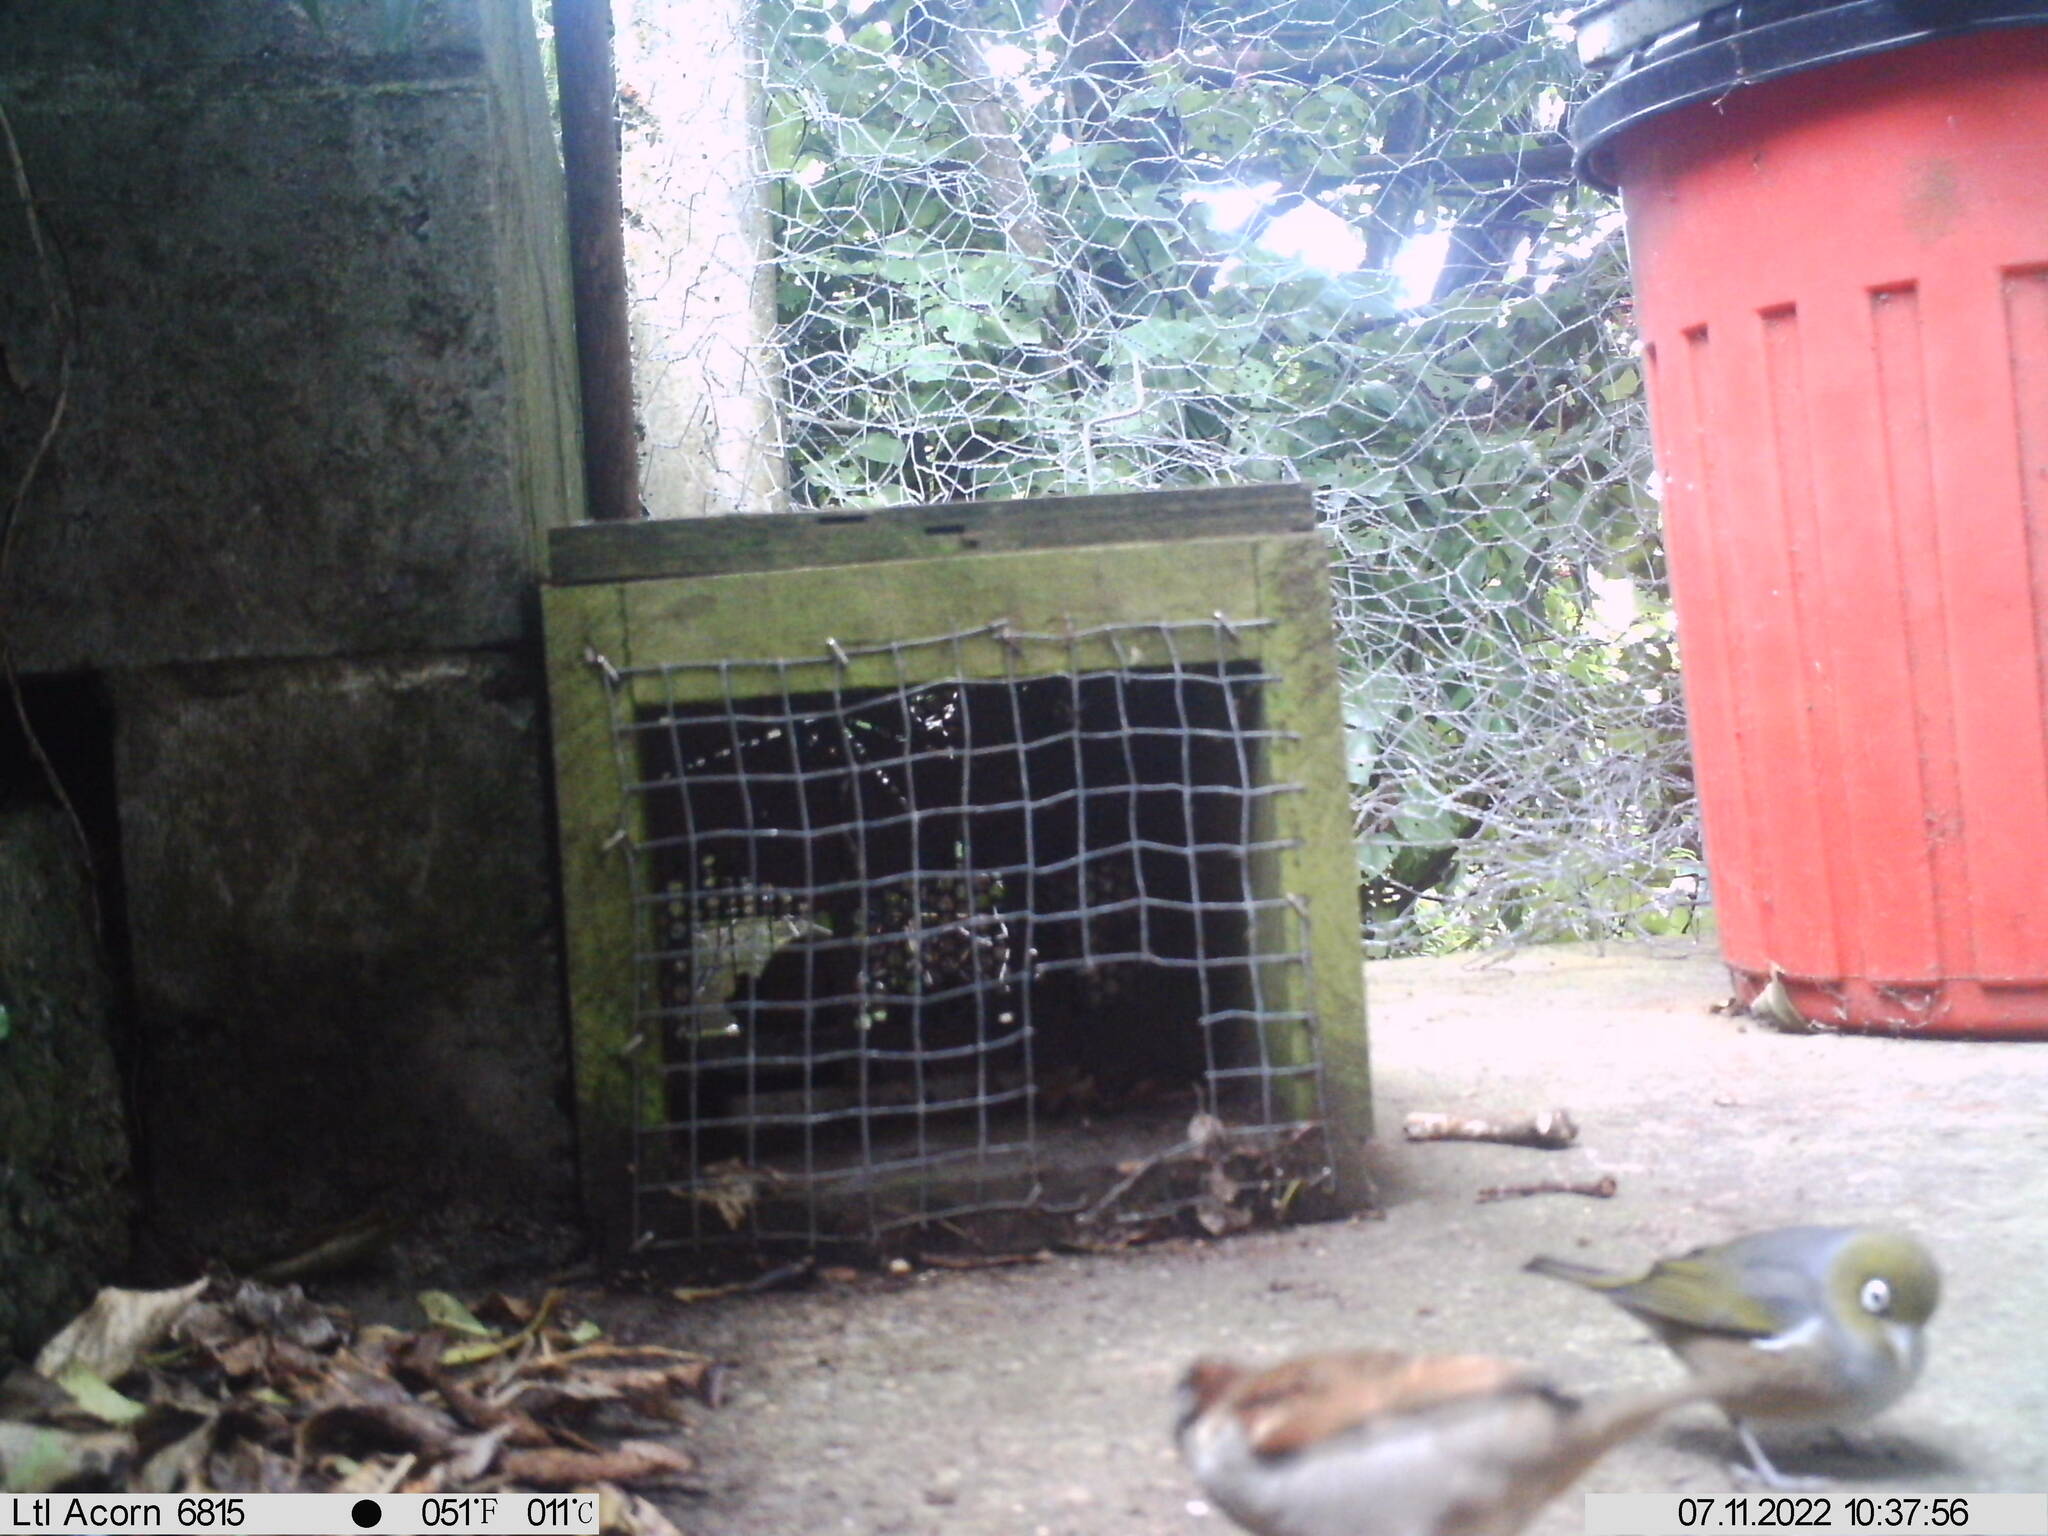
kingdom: Animalia
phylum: Chordata
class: Aves
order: Passeriformes
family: Zosteropidae
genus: Zosterops
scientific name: Zosterops lateralis
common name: Silvereye
